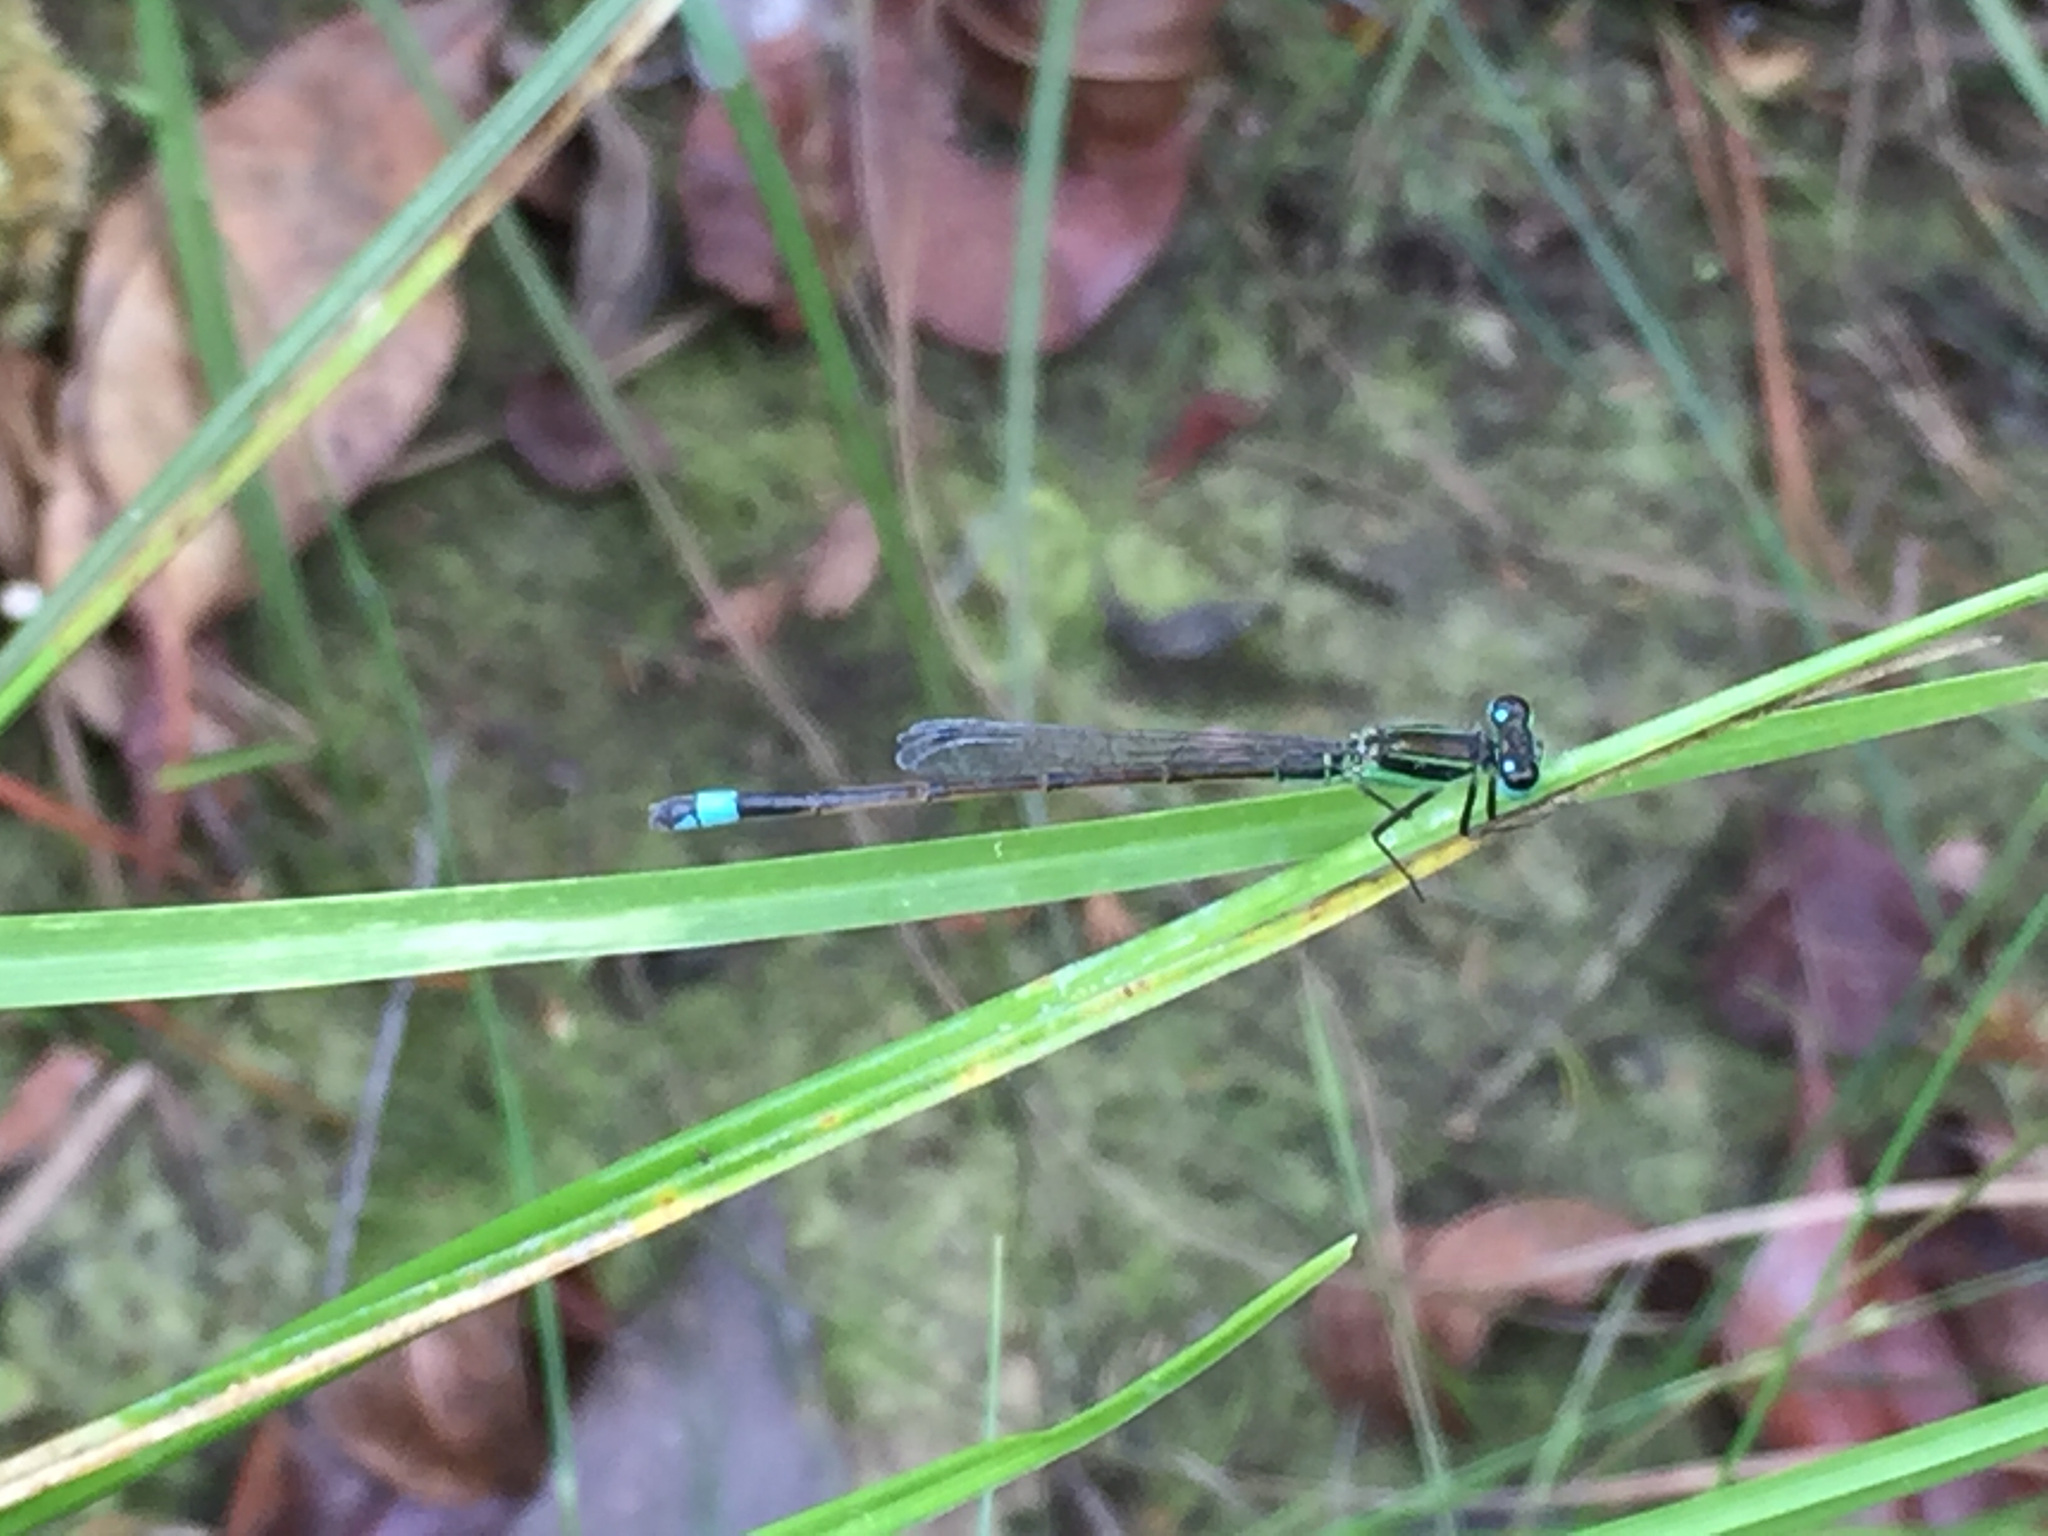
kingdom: Animalia
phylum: Arthropoda
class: Insecta
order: Odonata
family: Coenagrionidae
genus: Ischnura
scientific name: Ischnura ramburii
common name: Rambur's forktail
